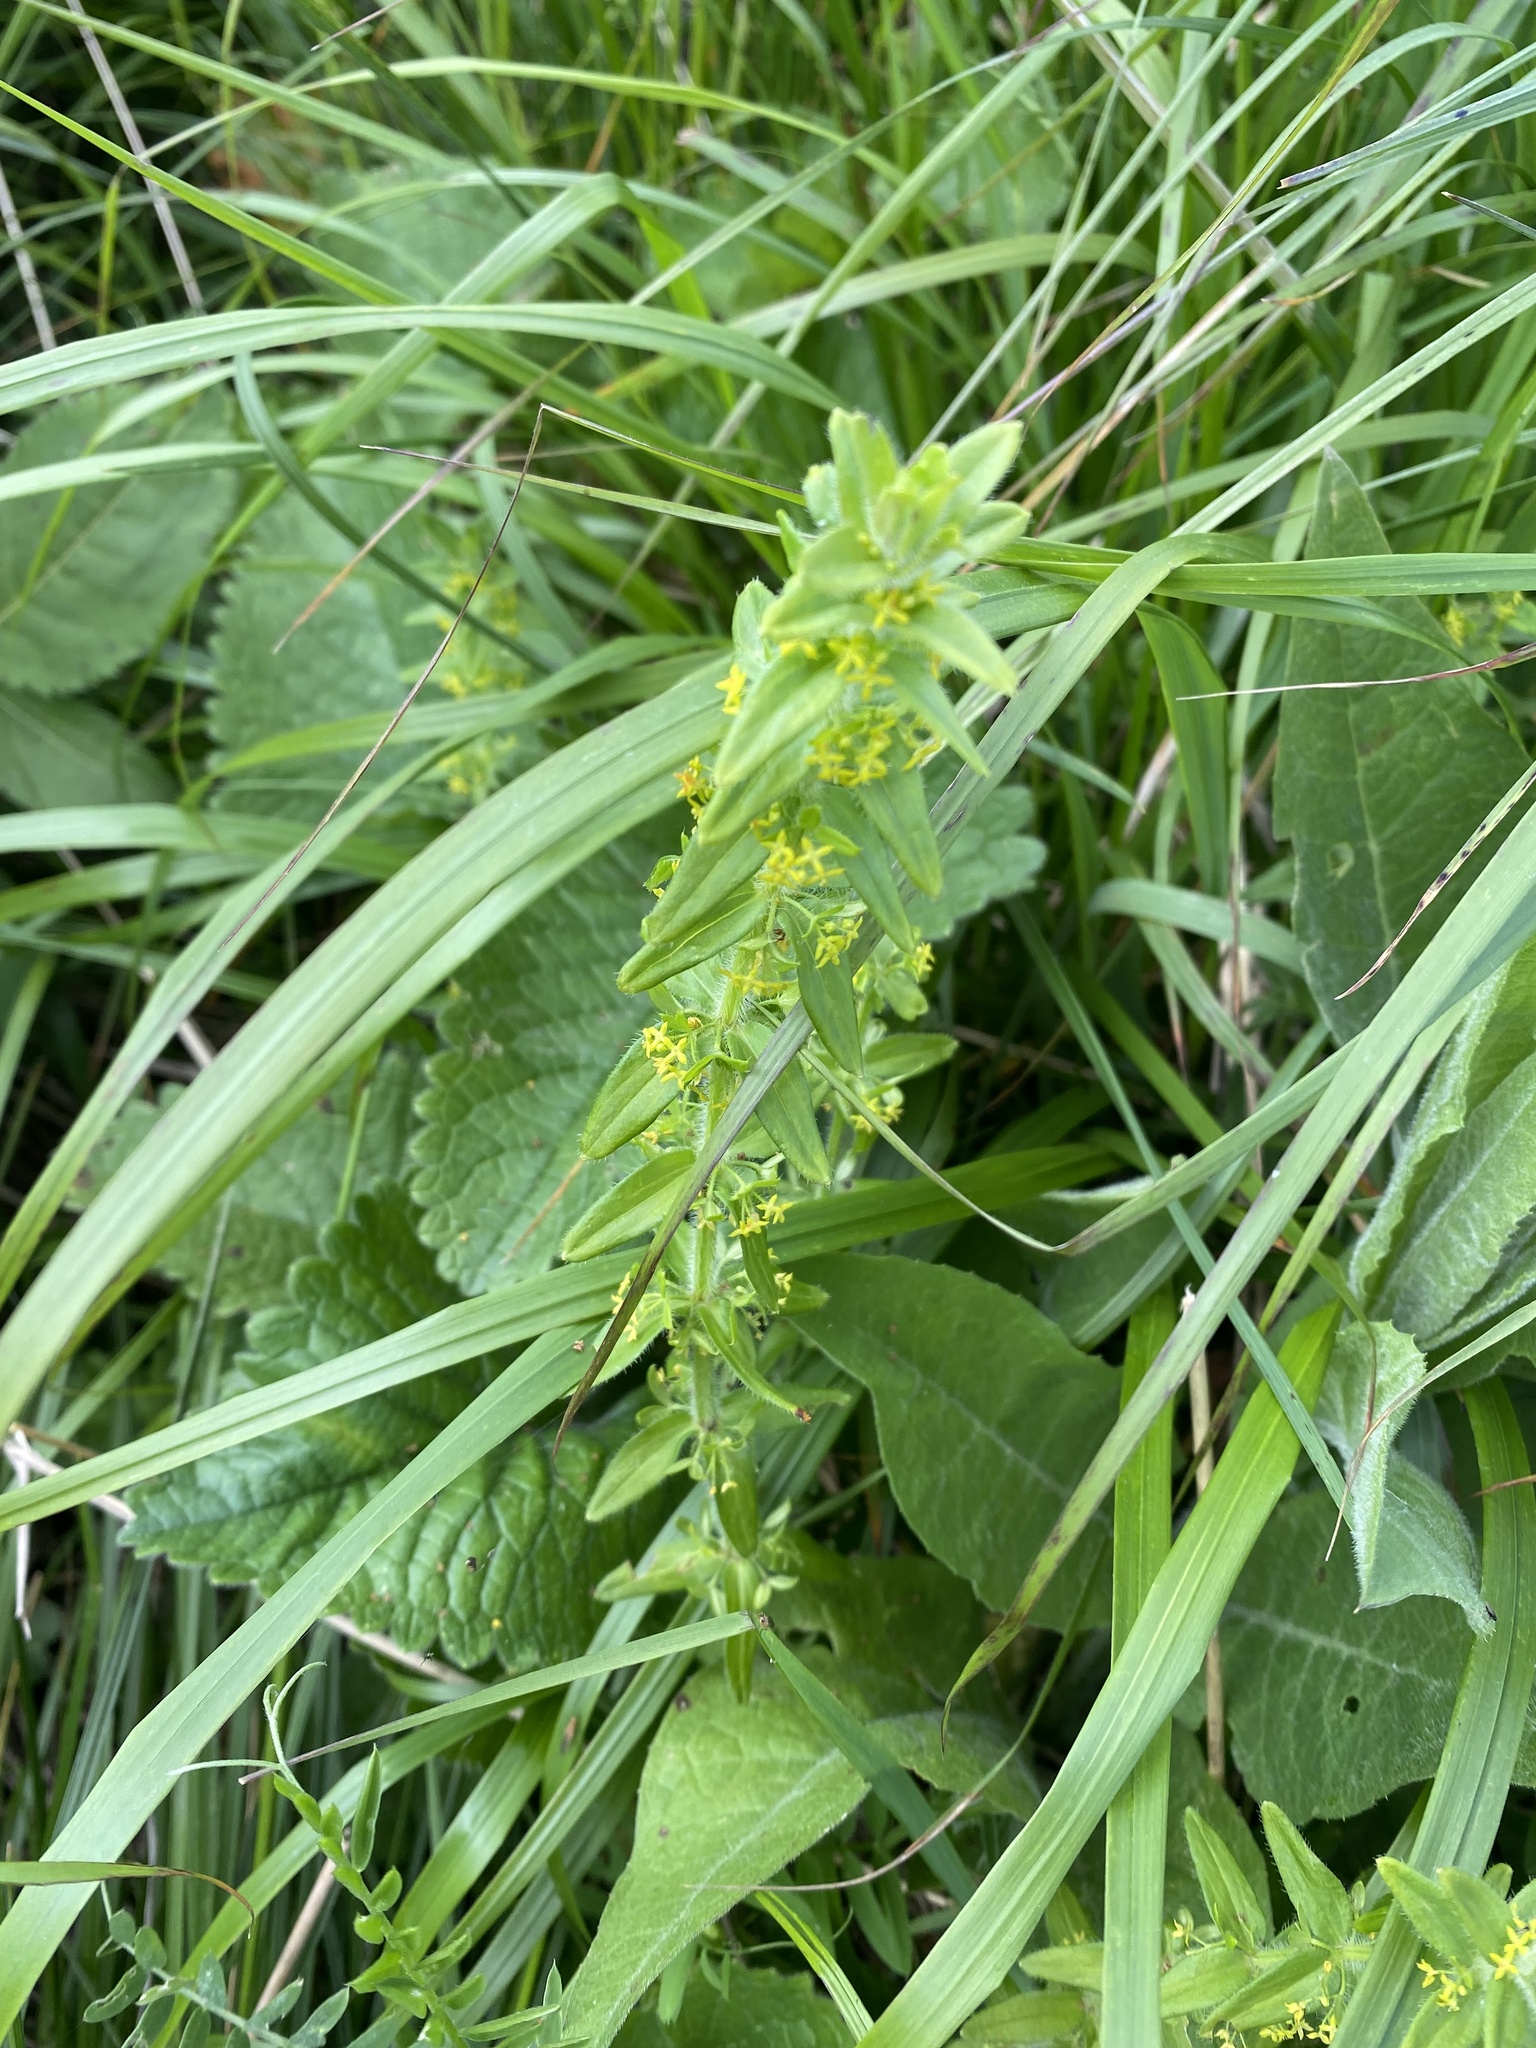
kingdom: Plantae
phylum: Tracheophyta
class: Magnoliopsida
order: Gentianales
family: Rubiaceae
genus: Cruciata
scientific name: Cruciata laevipes
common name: Crosswort
